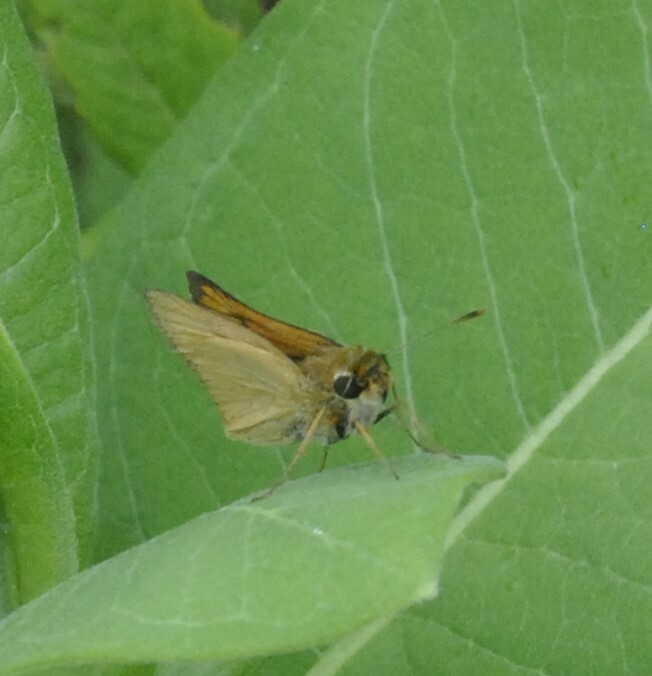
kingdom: Animalia
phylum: Arthropoda
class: Insecta
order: Lepidoptera
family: Hesperiidae
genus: Atrytone
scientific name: Atrytone delaware
